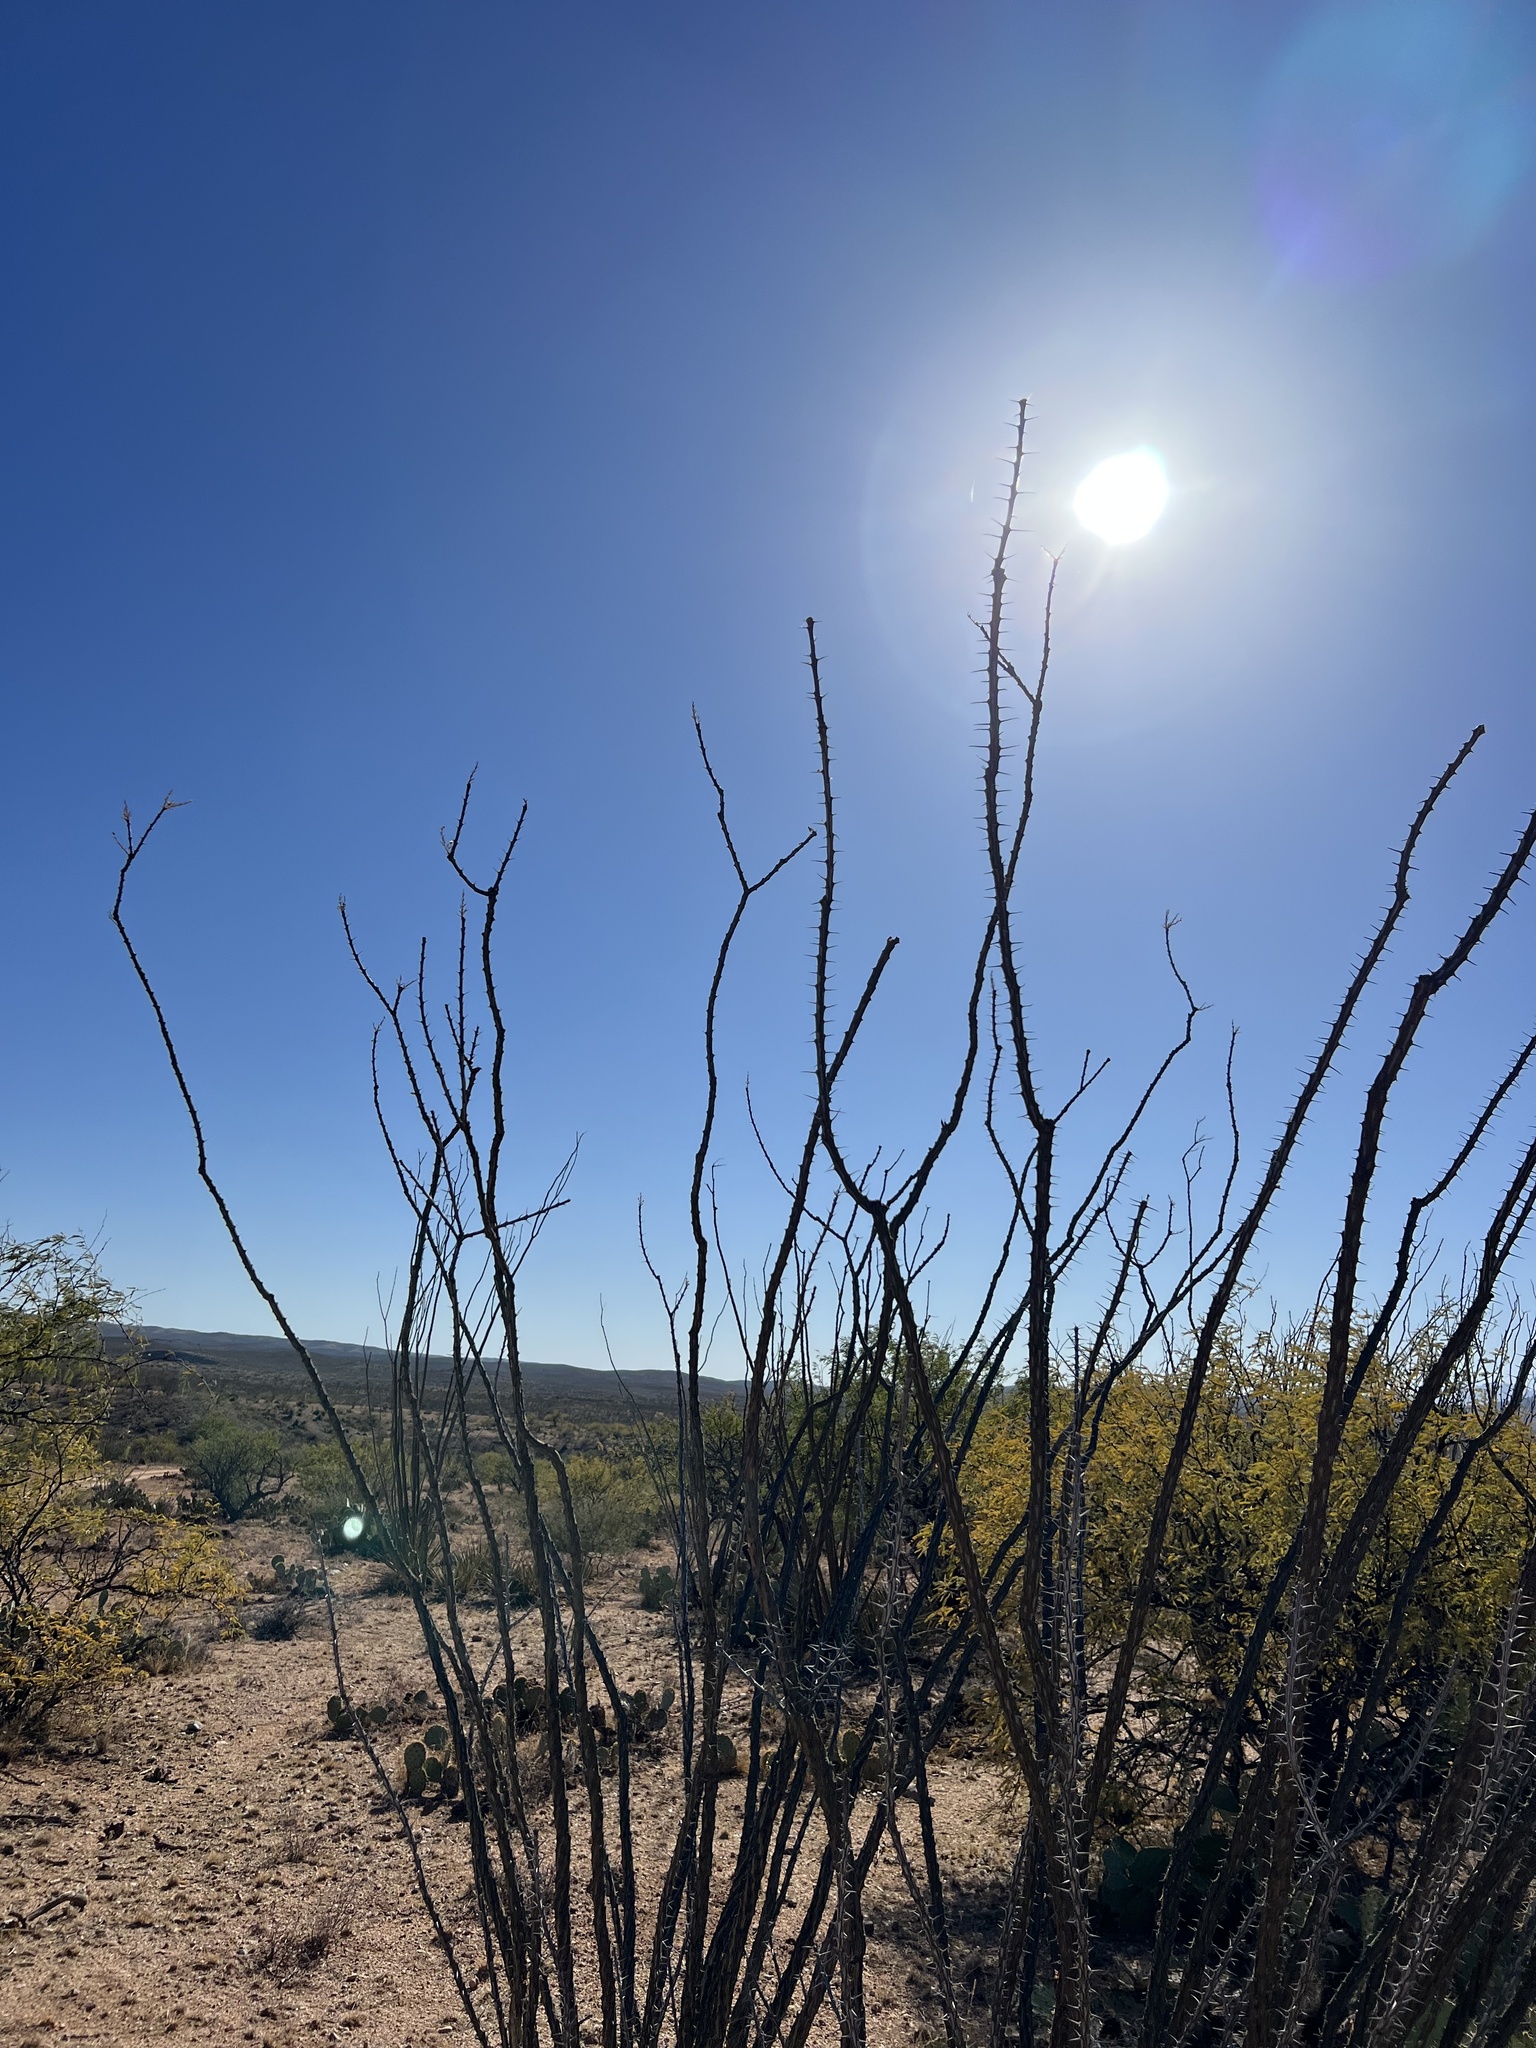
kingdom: Plantae
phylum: Tracheophyta
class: Magnoliopsida
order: Ericales
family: Fouquieriaceae
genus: Fouquieria
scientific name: Fouquieria splendens
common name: Vine-cactus
